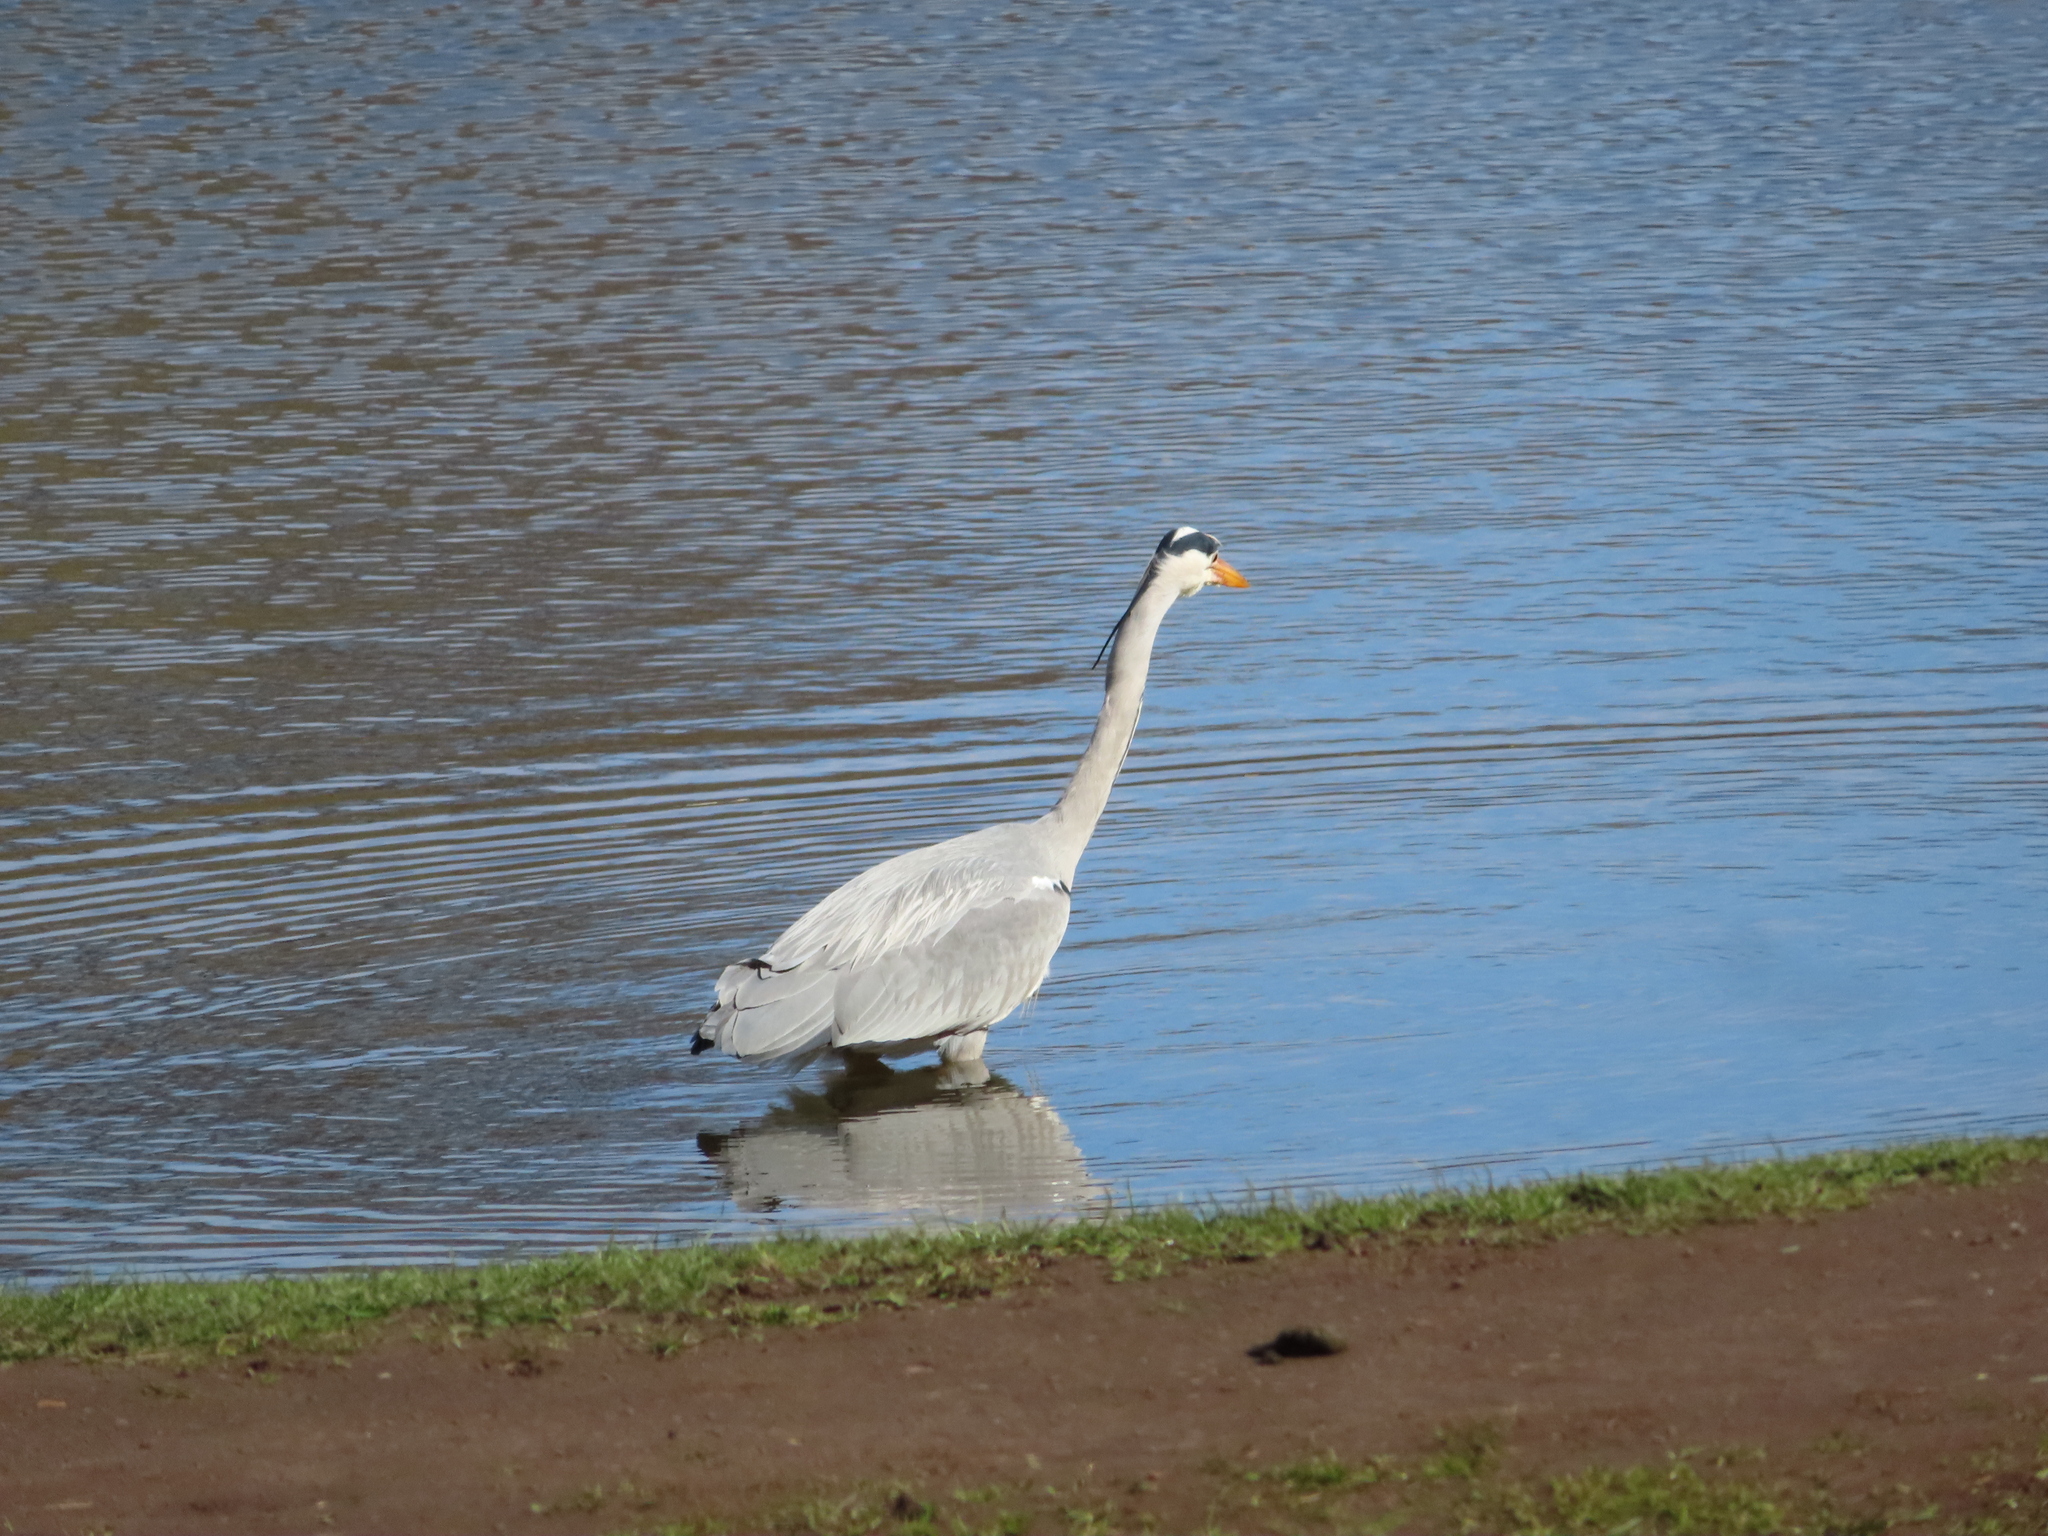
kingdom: Animalia
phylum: Chordata
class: Aves
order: Pelecaniformes
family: Ardeidae
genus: Ardea
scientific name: Ardea cinerea
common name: Grey heron
